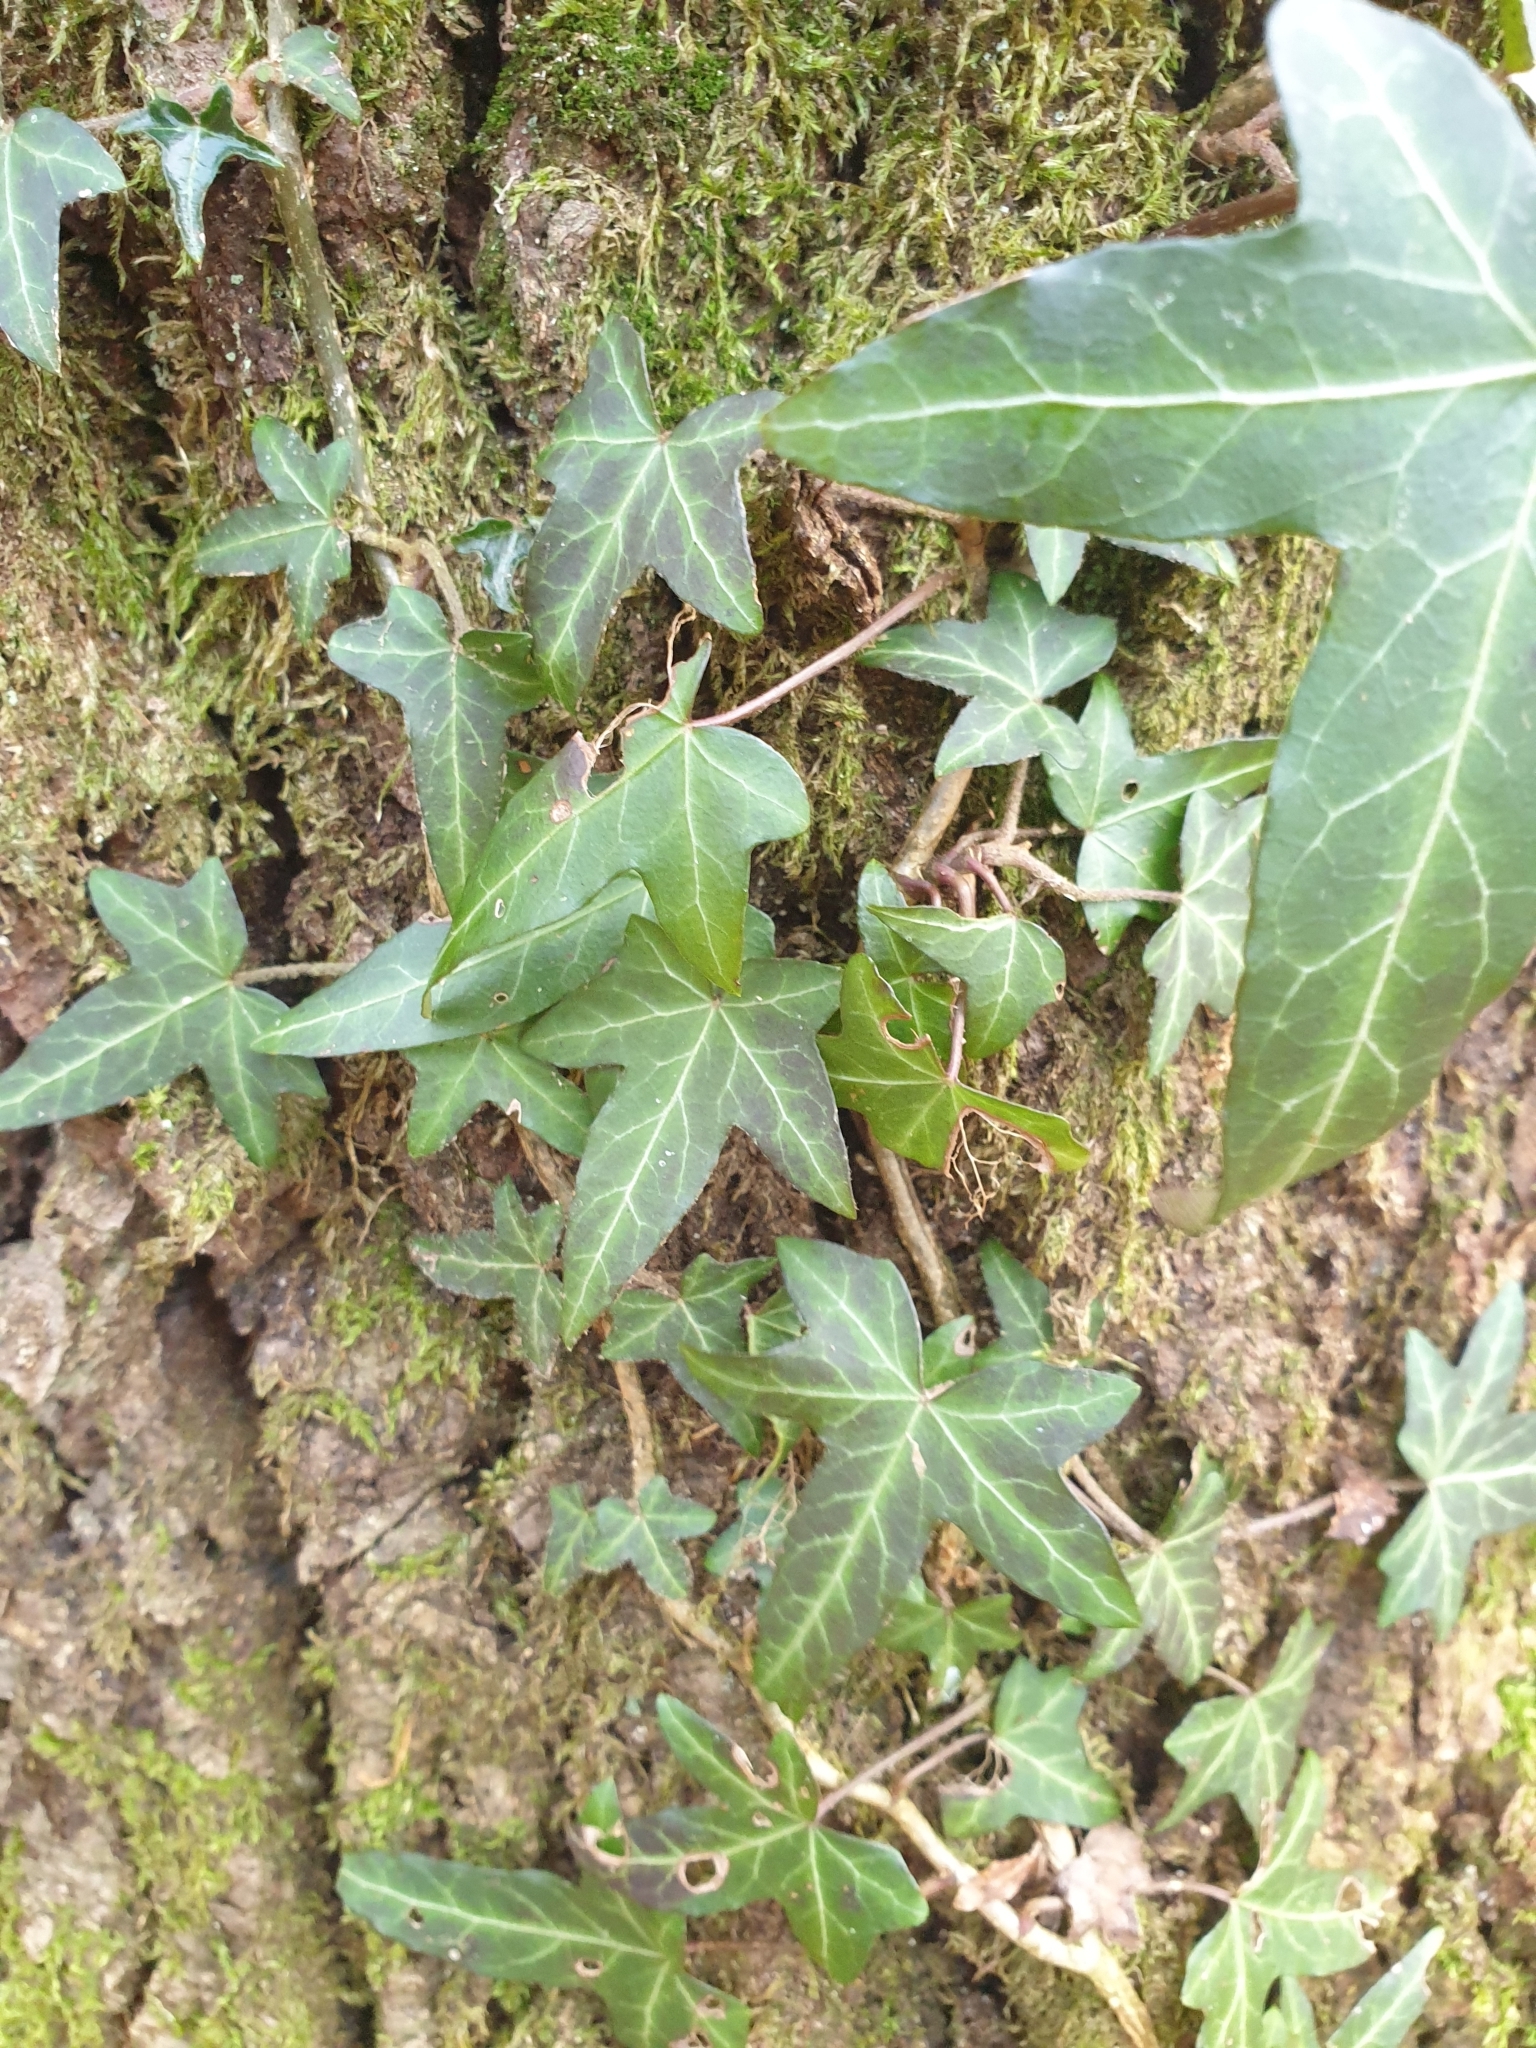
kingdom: Plantae
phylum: Tracheophyta
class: Magnoliopsida
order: Apiales
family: Araliaceae
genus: Hedera
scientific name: Hedera helix
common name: Ivy
